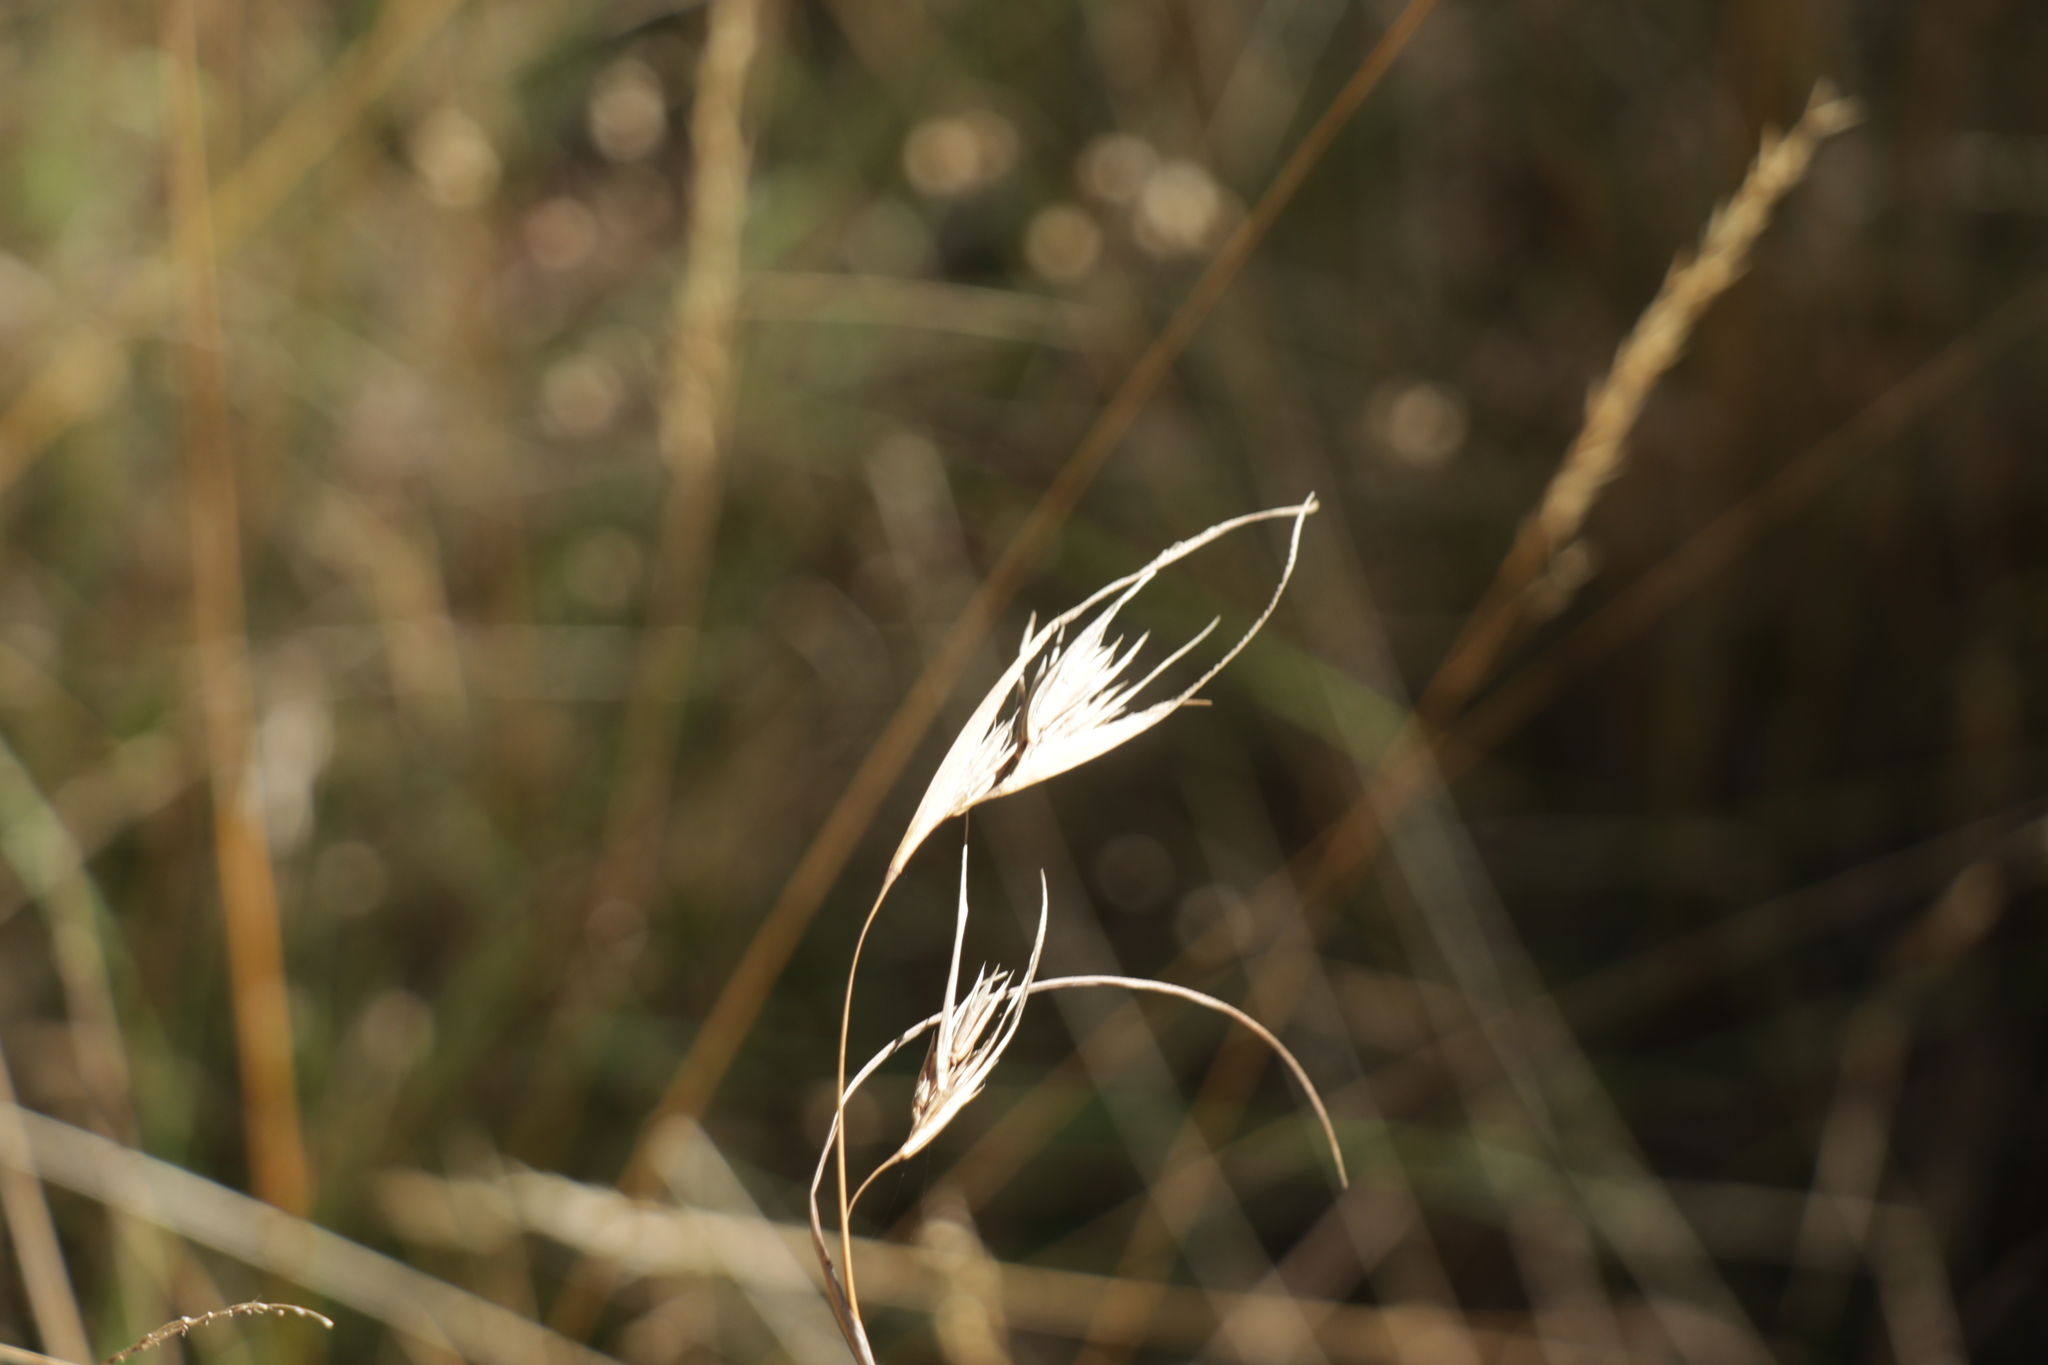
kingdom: Plantae
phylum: Tracheophyta
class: Liliopsida
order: Poales
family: Poaceae
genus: Themeda
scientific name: Themeda triandra
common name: Kangaroo grass
